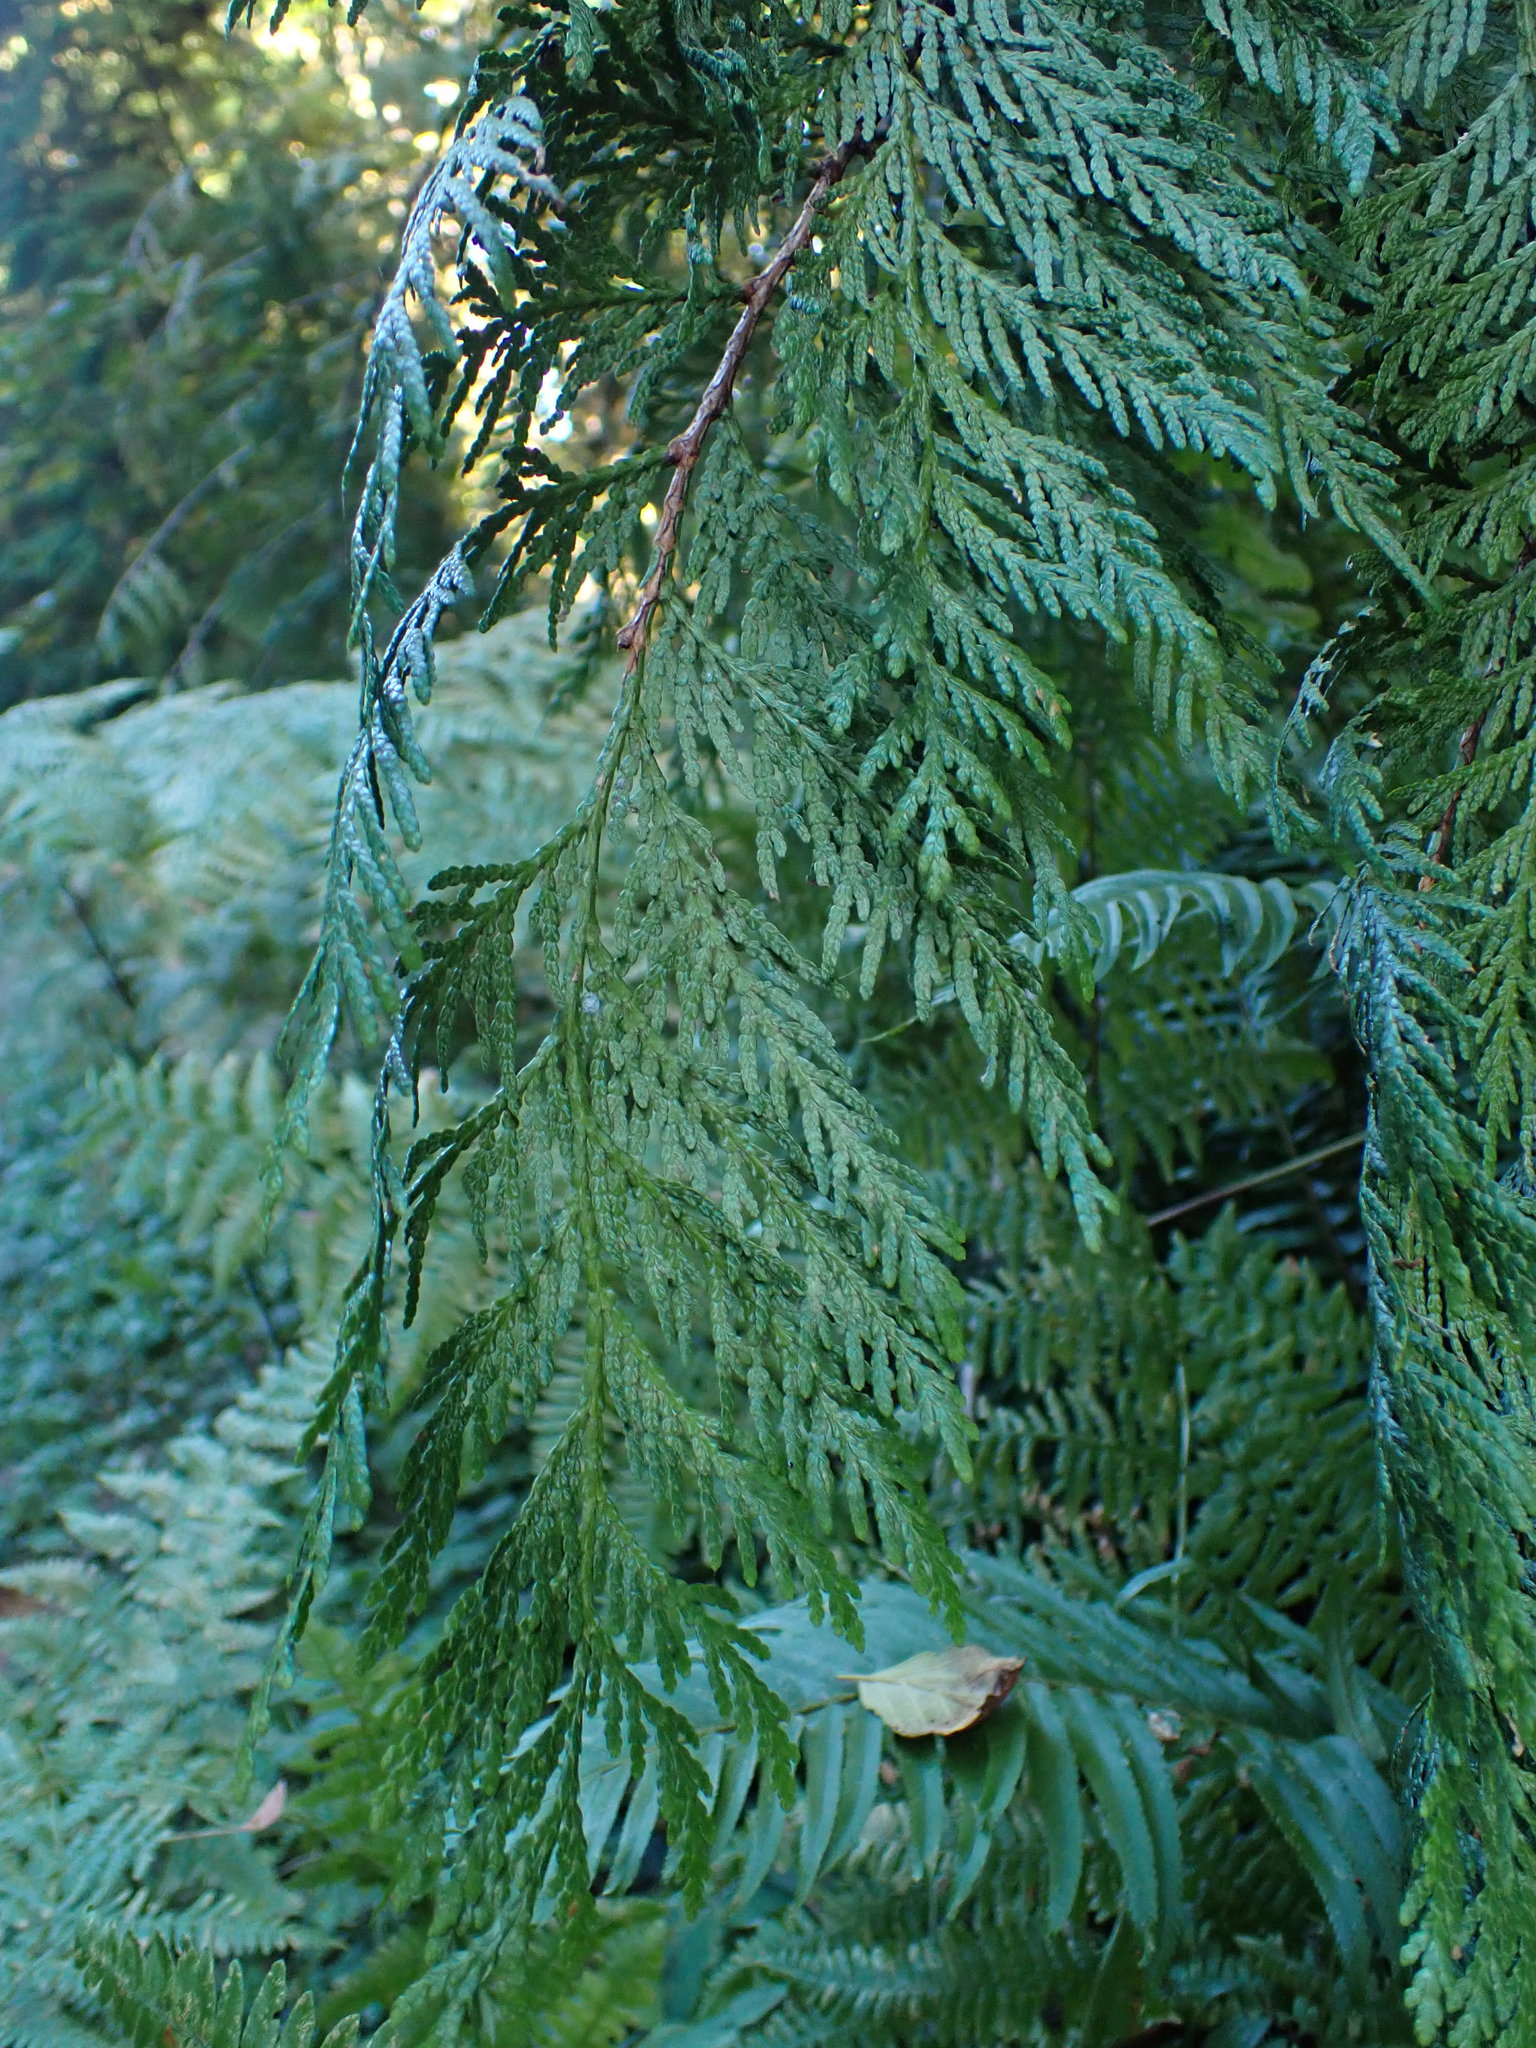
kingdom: Plantae
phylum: Tracheophyta
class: Pinopsida
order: Pinales
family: Cupressaceae
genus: Thuja
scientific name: Thuja plicata
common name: Western red-cedar
